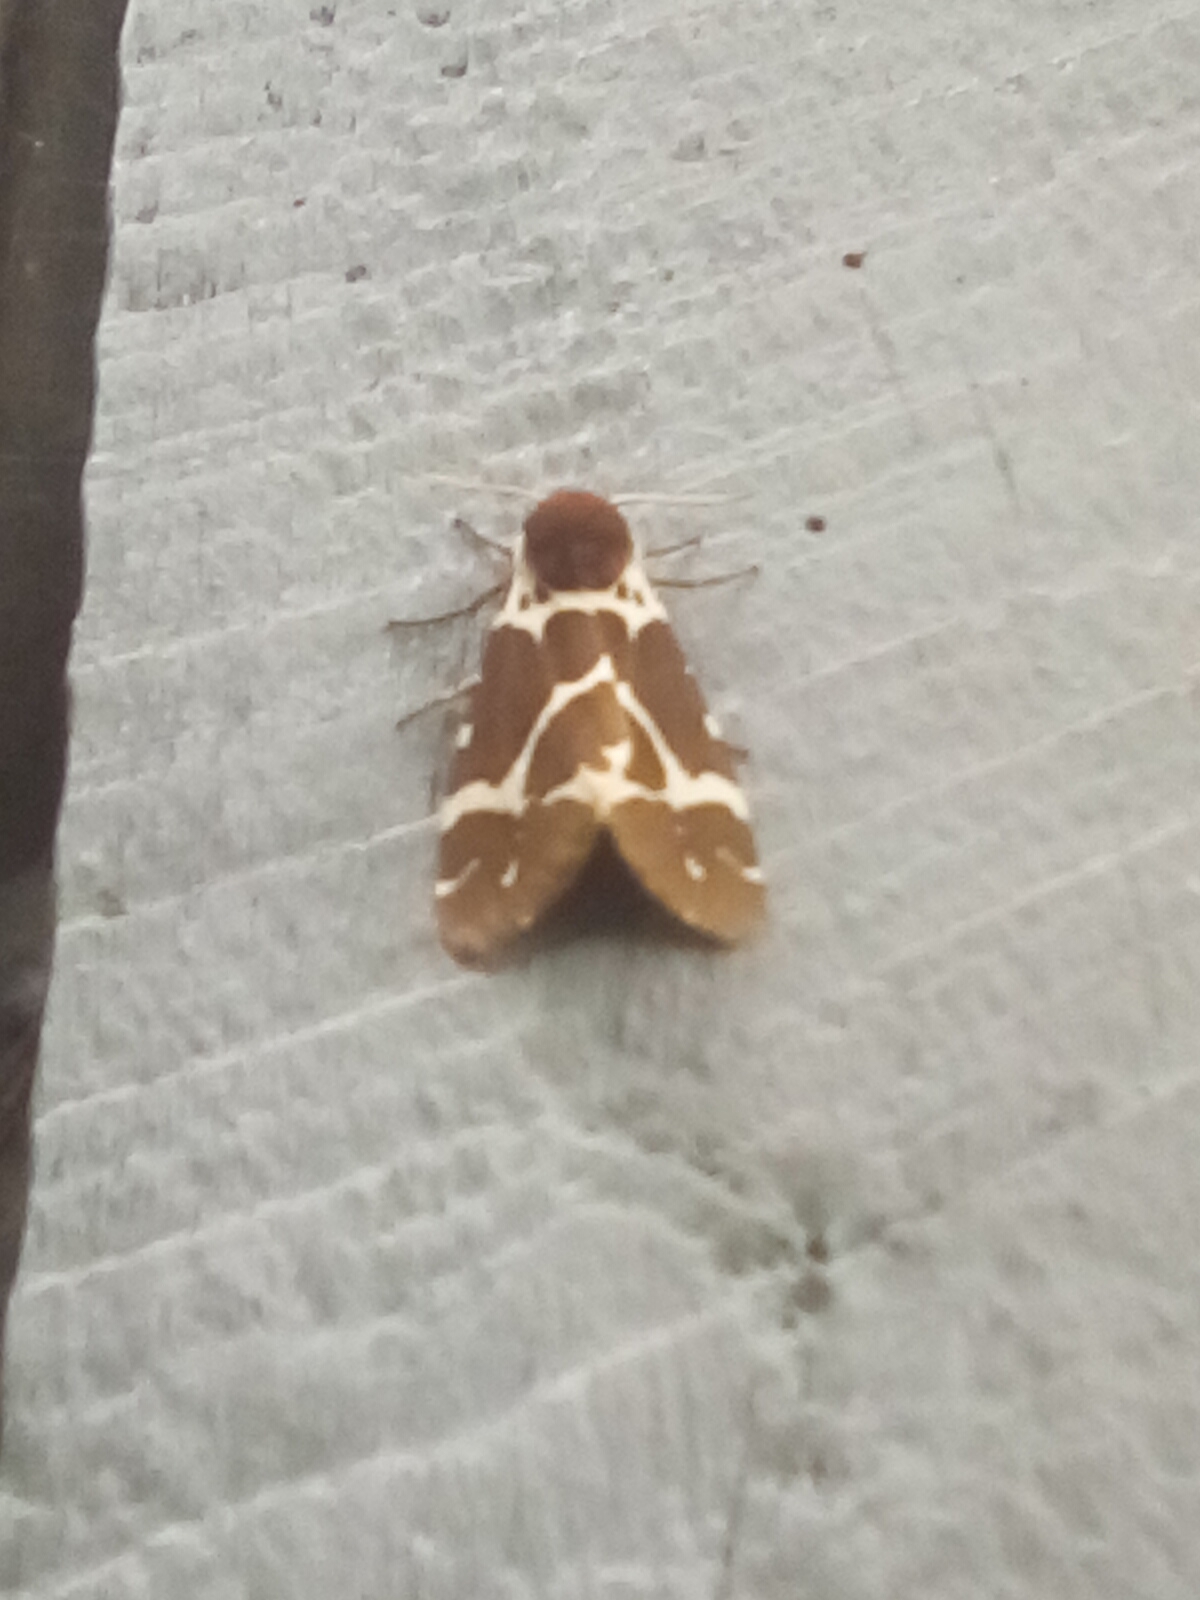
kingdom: Animalia
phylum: Arthropoda
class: Insecta
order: Lepidoptera
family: Erebidae
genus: Arctia
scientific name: Arctia caja
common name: Garden tiger
